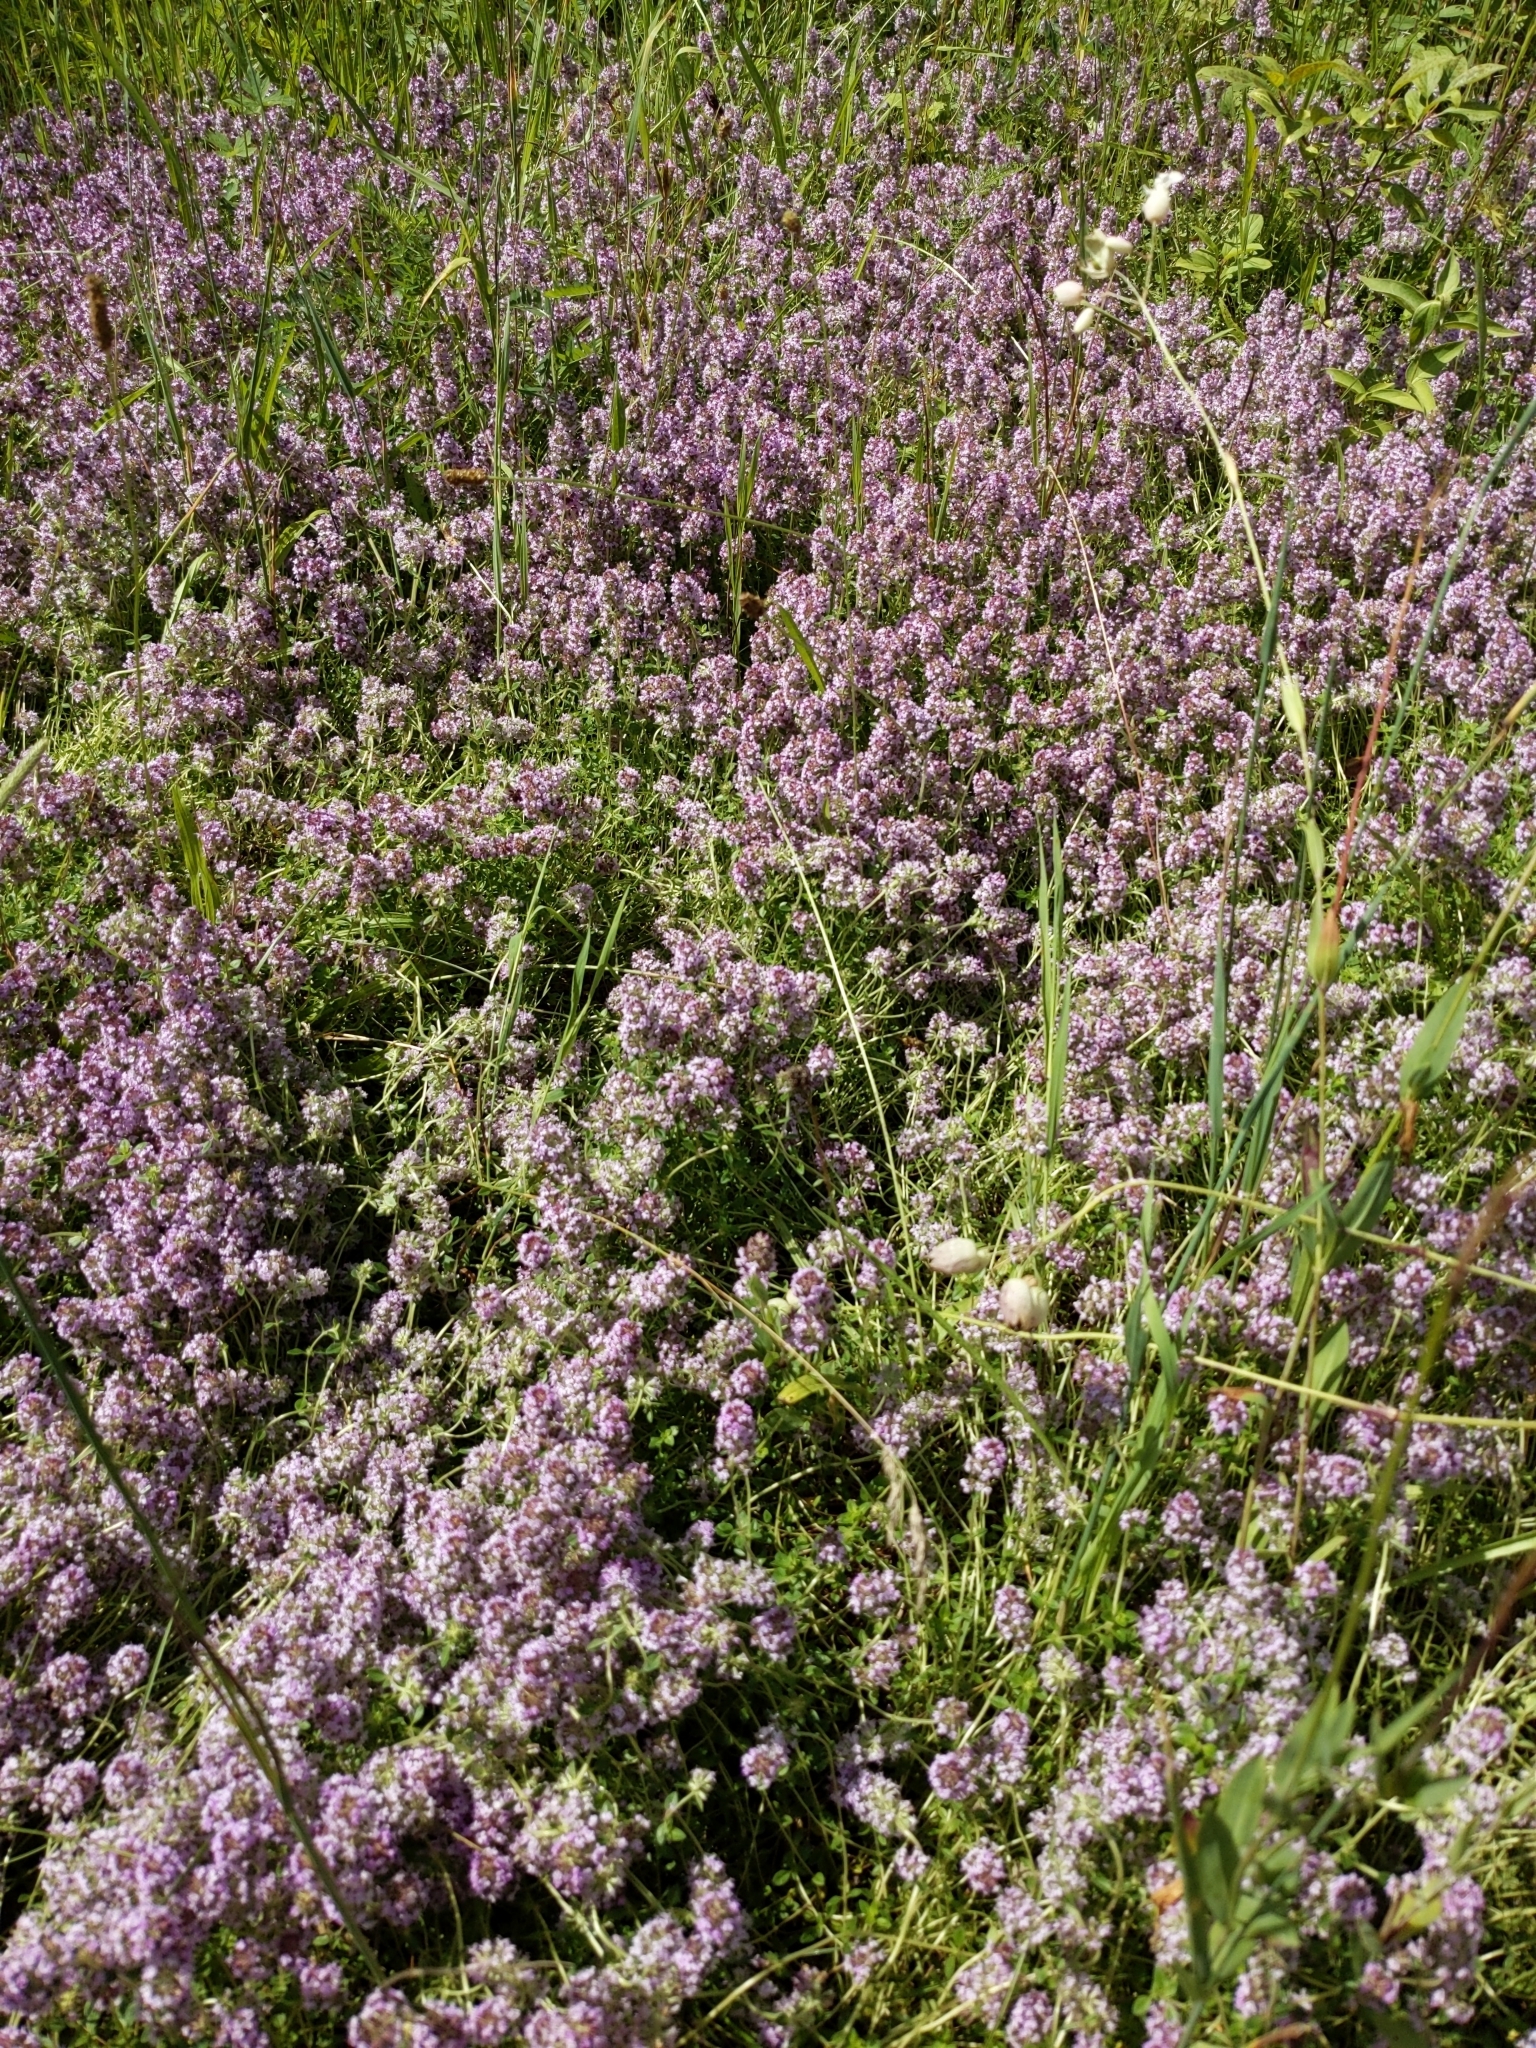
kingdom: Plantae
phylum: Tracheophyta
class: Magnoliopsida
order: Lamiales
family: Lamiaceae
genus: Thymus
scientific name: Thymus pulegioides
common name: Large thyme
